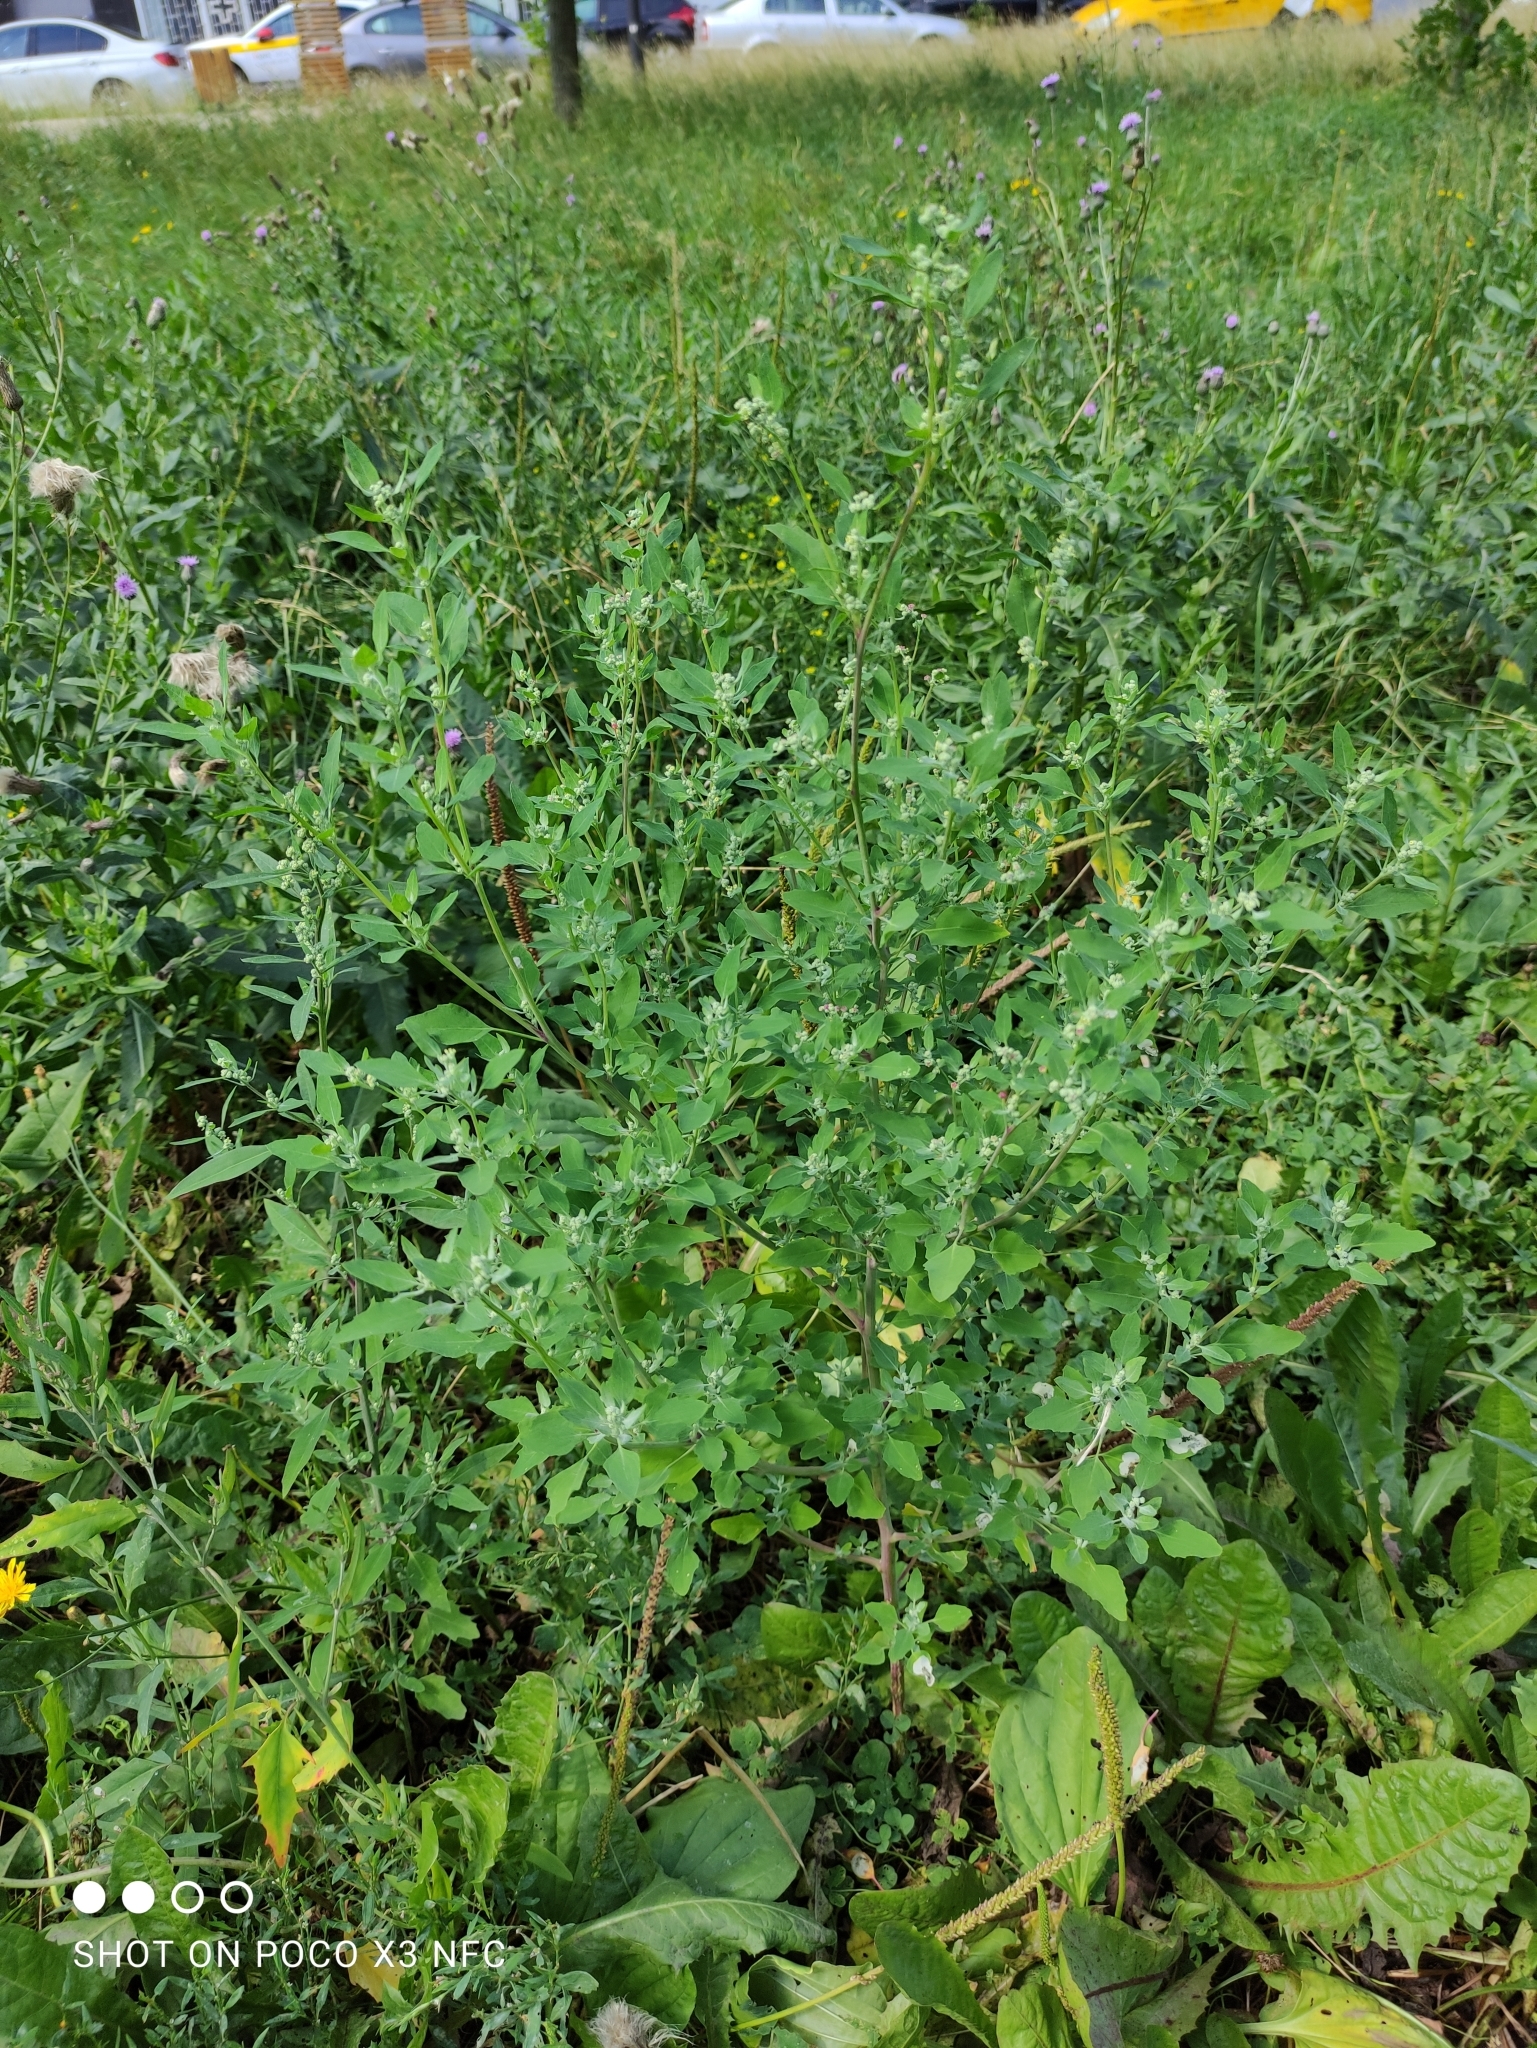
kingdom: Plantae
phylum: Tracheophyta
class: Magnoliopsida
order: Caryophyllales
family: Amaranthaceae
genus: Chenopodium
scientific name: Chenopodium album
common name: Fat-hen
